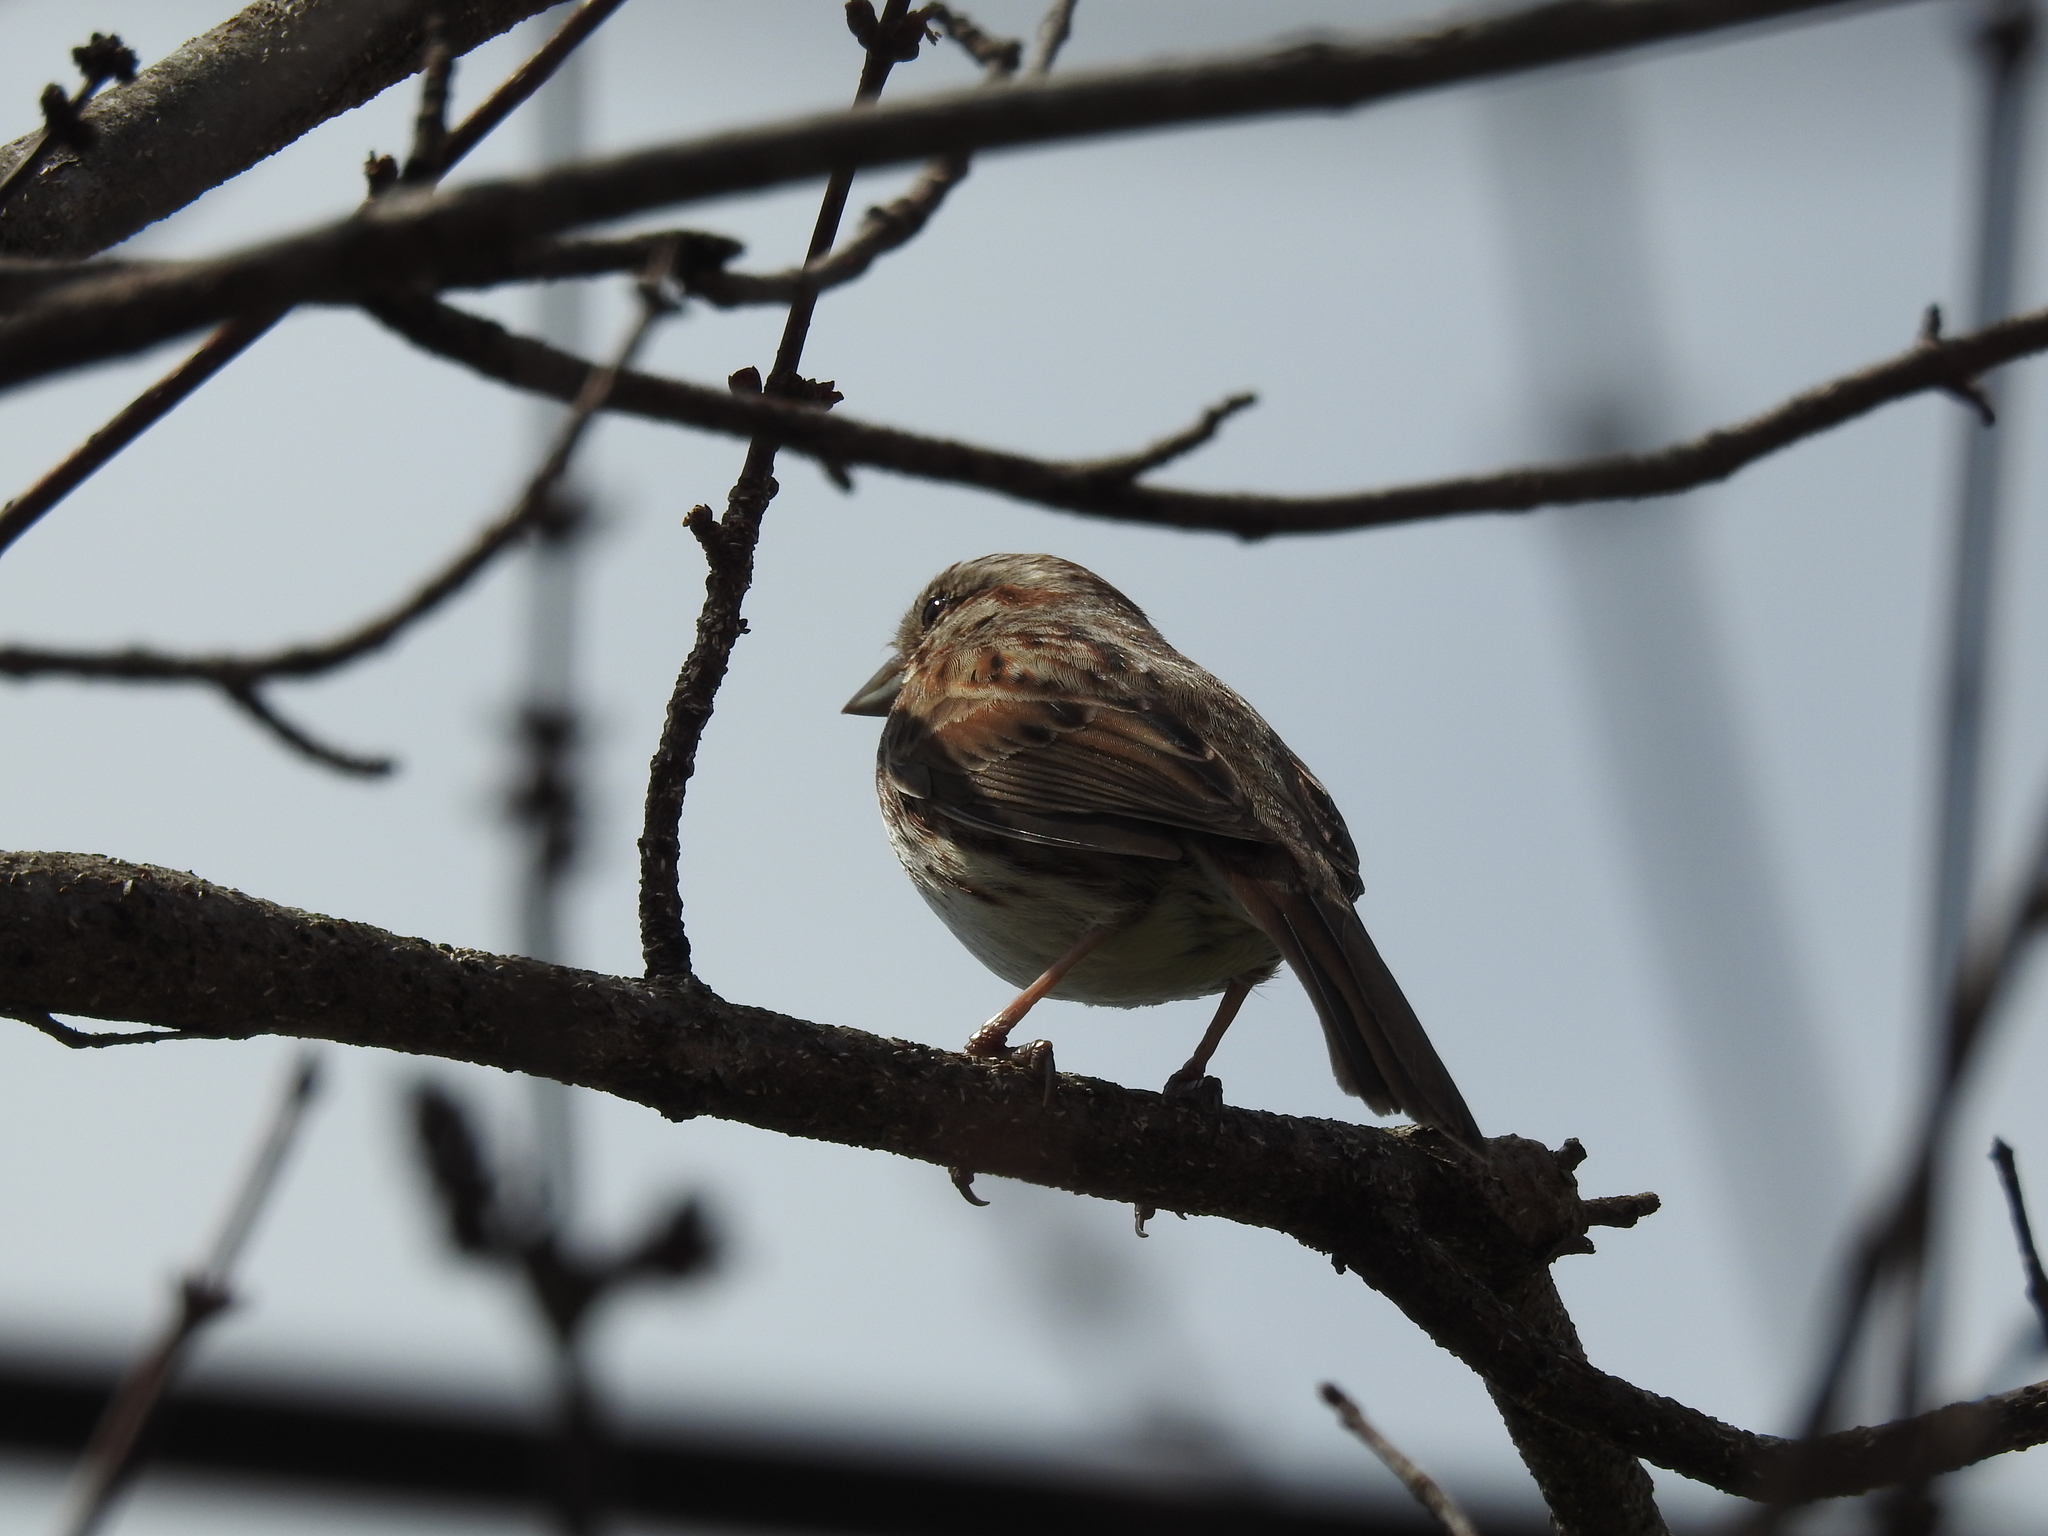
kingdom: Animalia
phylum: Chordata
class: Aves
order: Passeriformes
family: Passerellidae
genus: Melospiza
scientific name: Melospiza melodia
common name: Song sparrow
